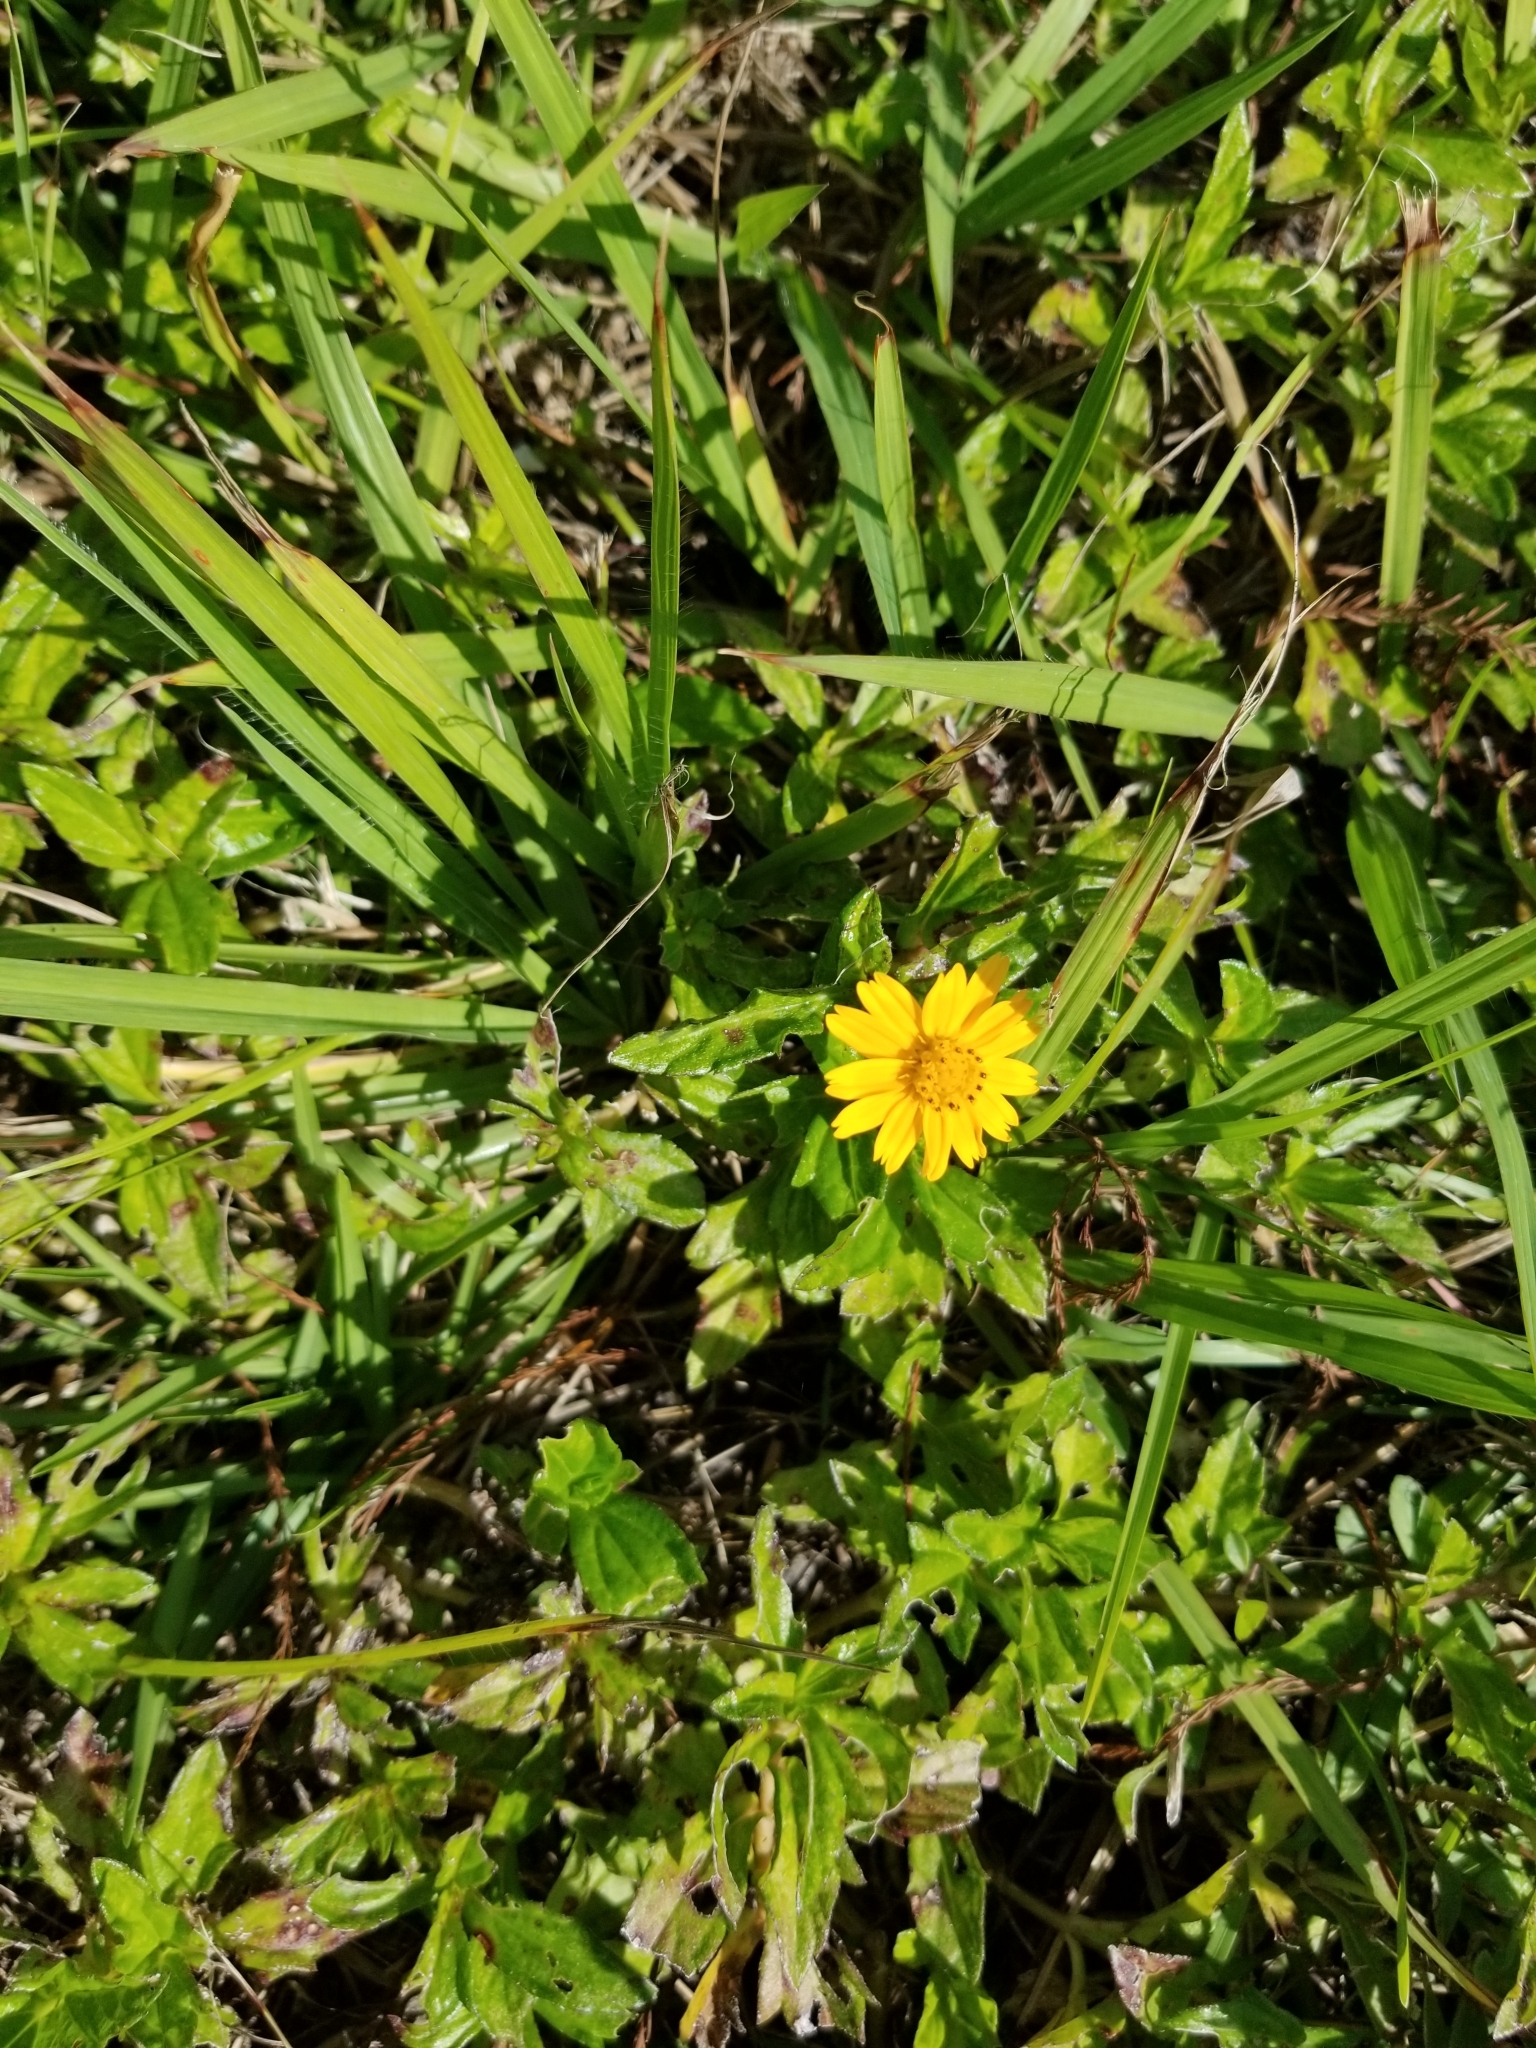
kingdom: Plantae
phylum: Tracheophyta
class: Magnoliopsida
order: Asterales
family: Asteraceae
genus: Sphagneticola
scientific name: Sphagneticola trilobata
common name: Bay biscayne creeping-oxeye
